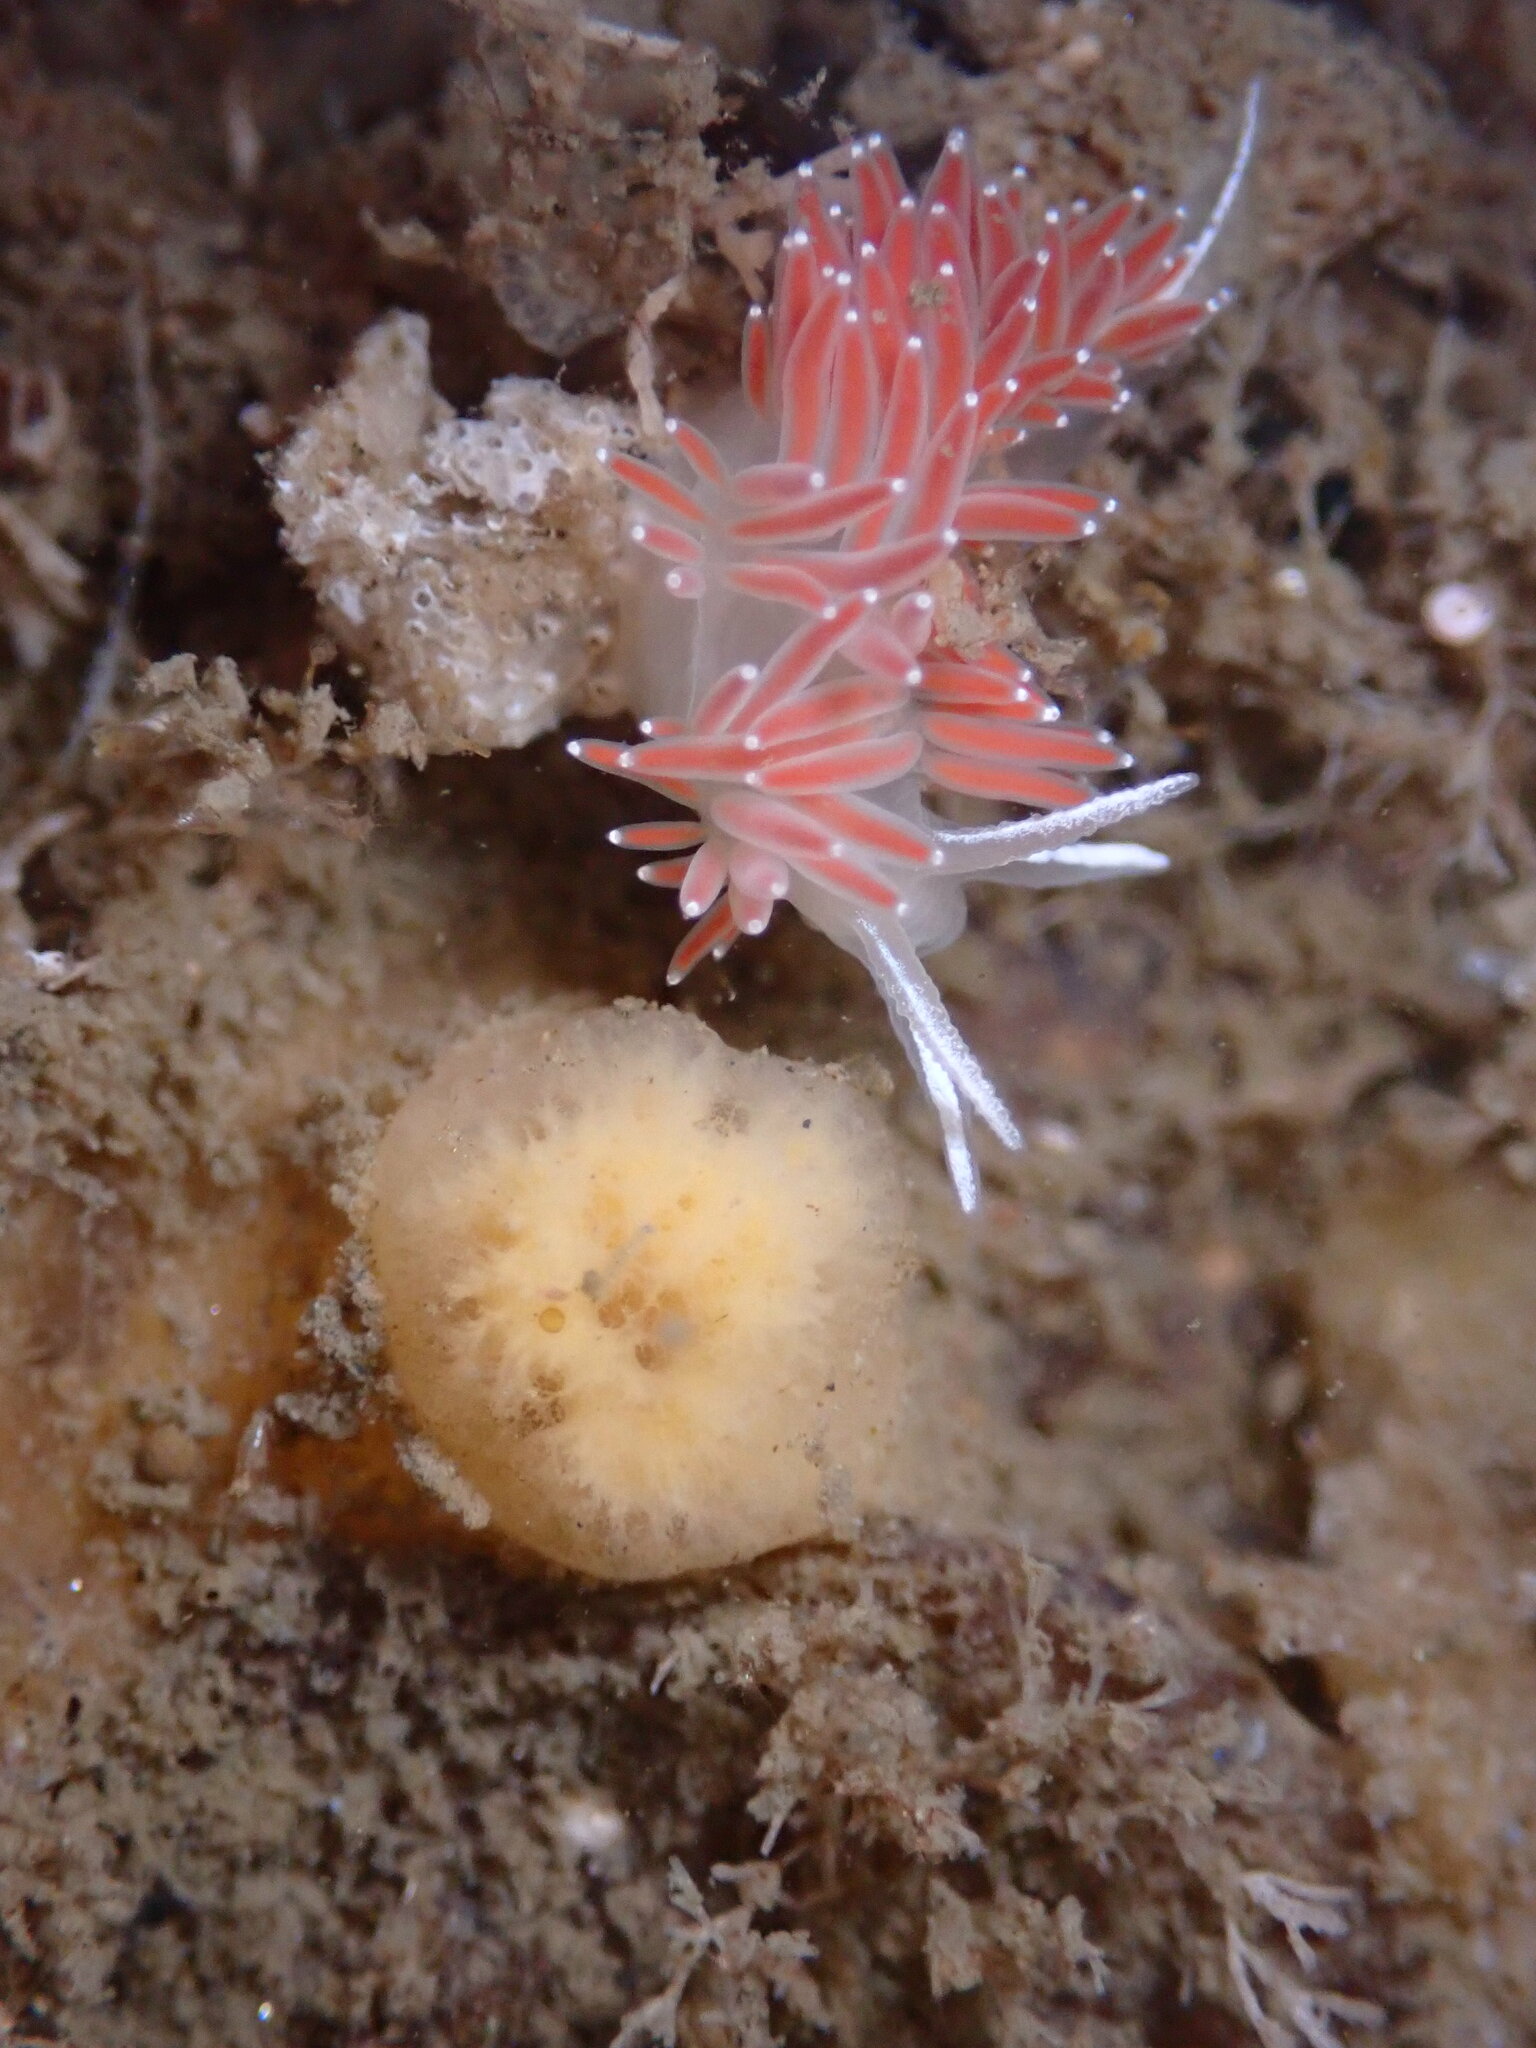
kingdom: Animalia
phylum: Mollusca
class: Gastropoda
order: Nudibranchia
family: Coryphellidae
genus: Coryphella
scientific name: Coryphella verrucosa
